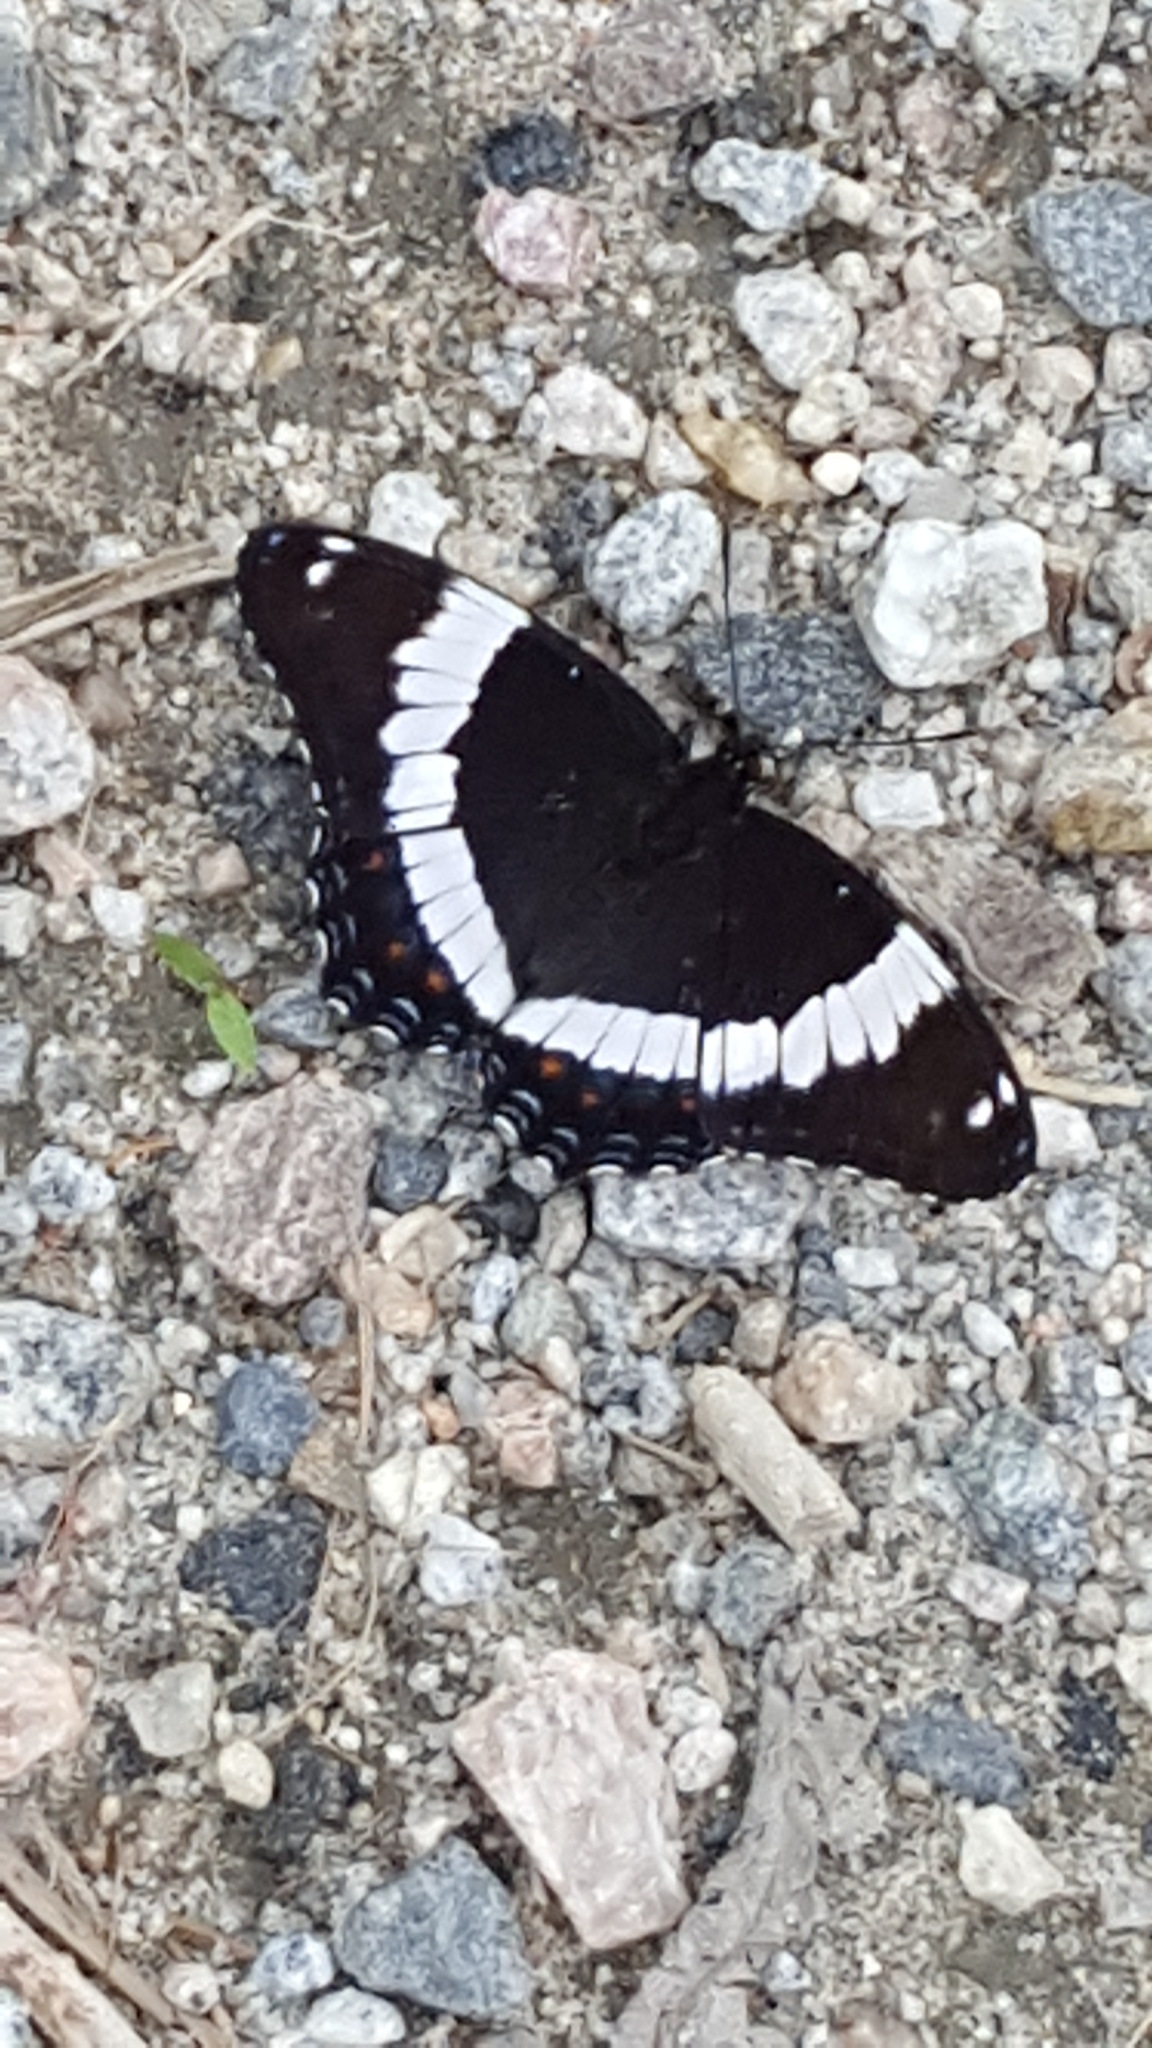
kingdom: Animalia
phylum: Arthropoda
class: Insecta
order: Lepidoptera
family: Nymphalidae
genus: Limenitis
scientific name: Limenitis arthemis
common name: Red-spotted admiral
